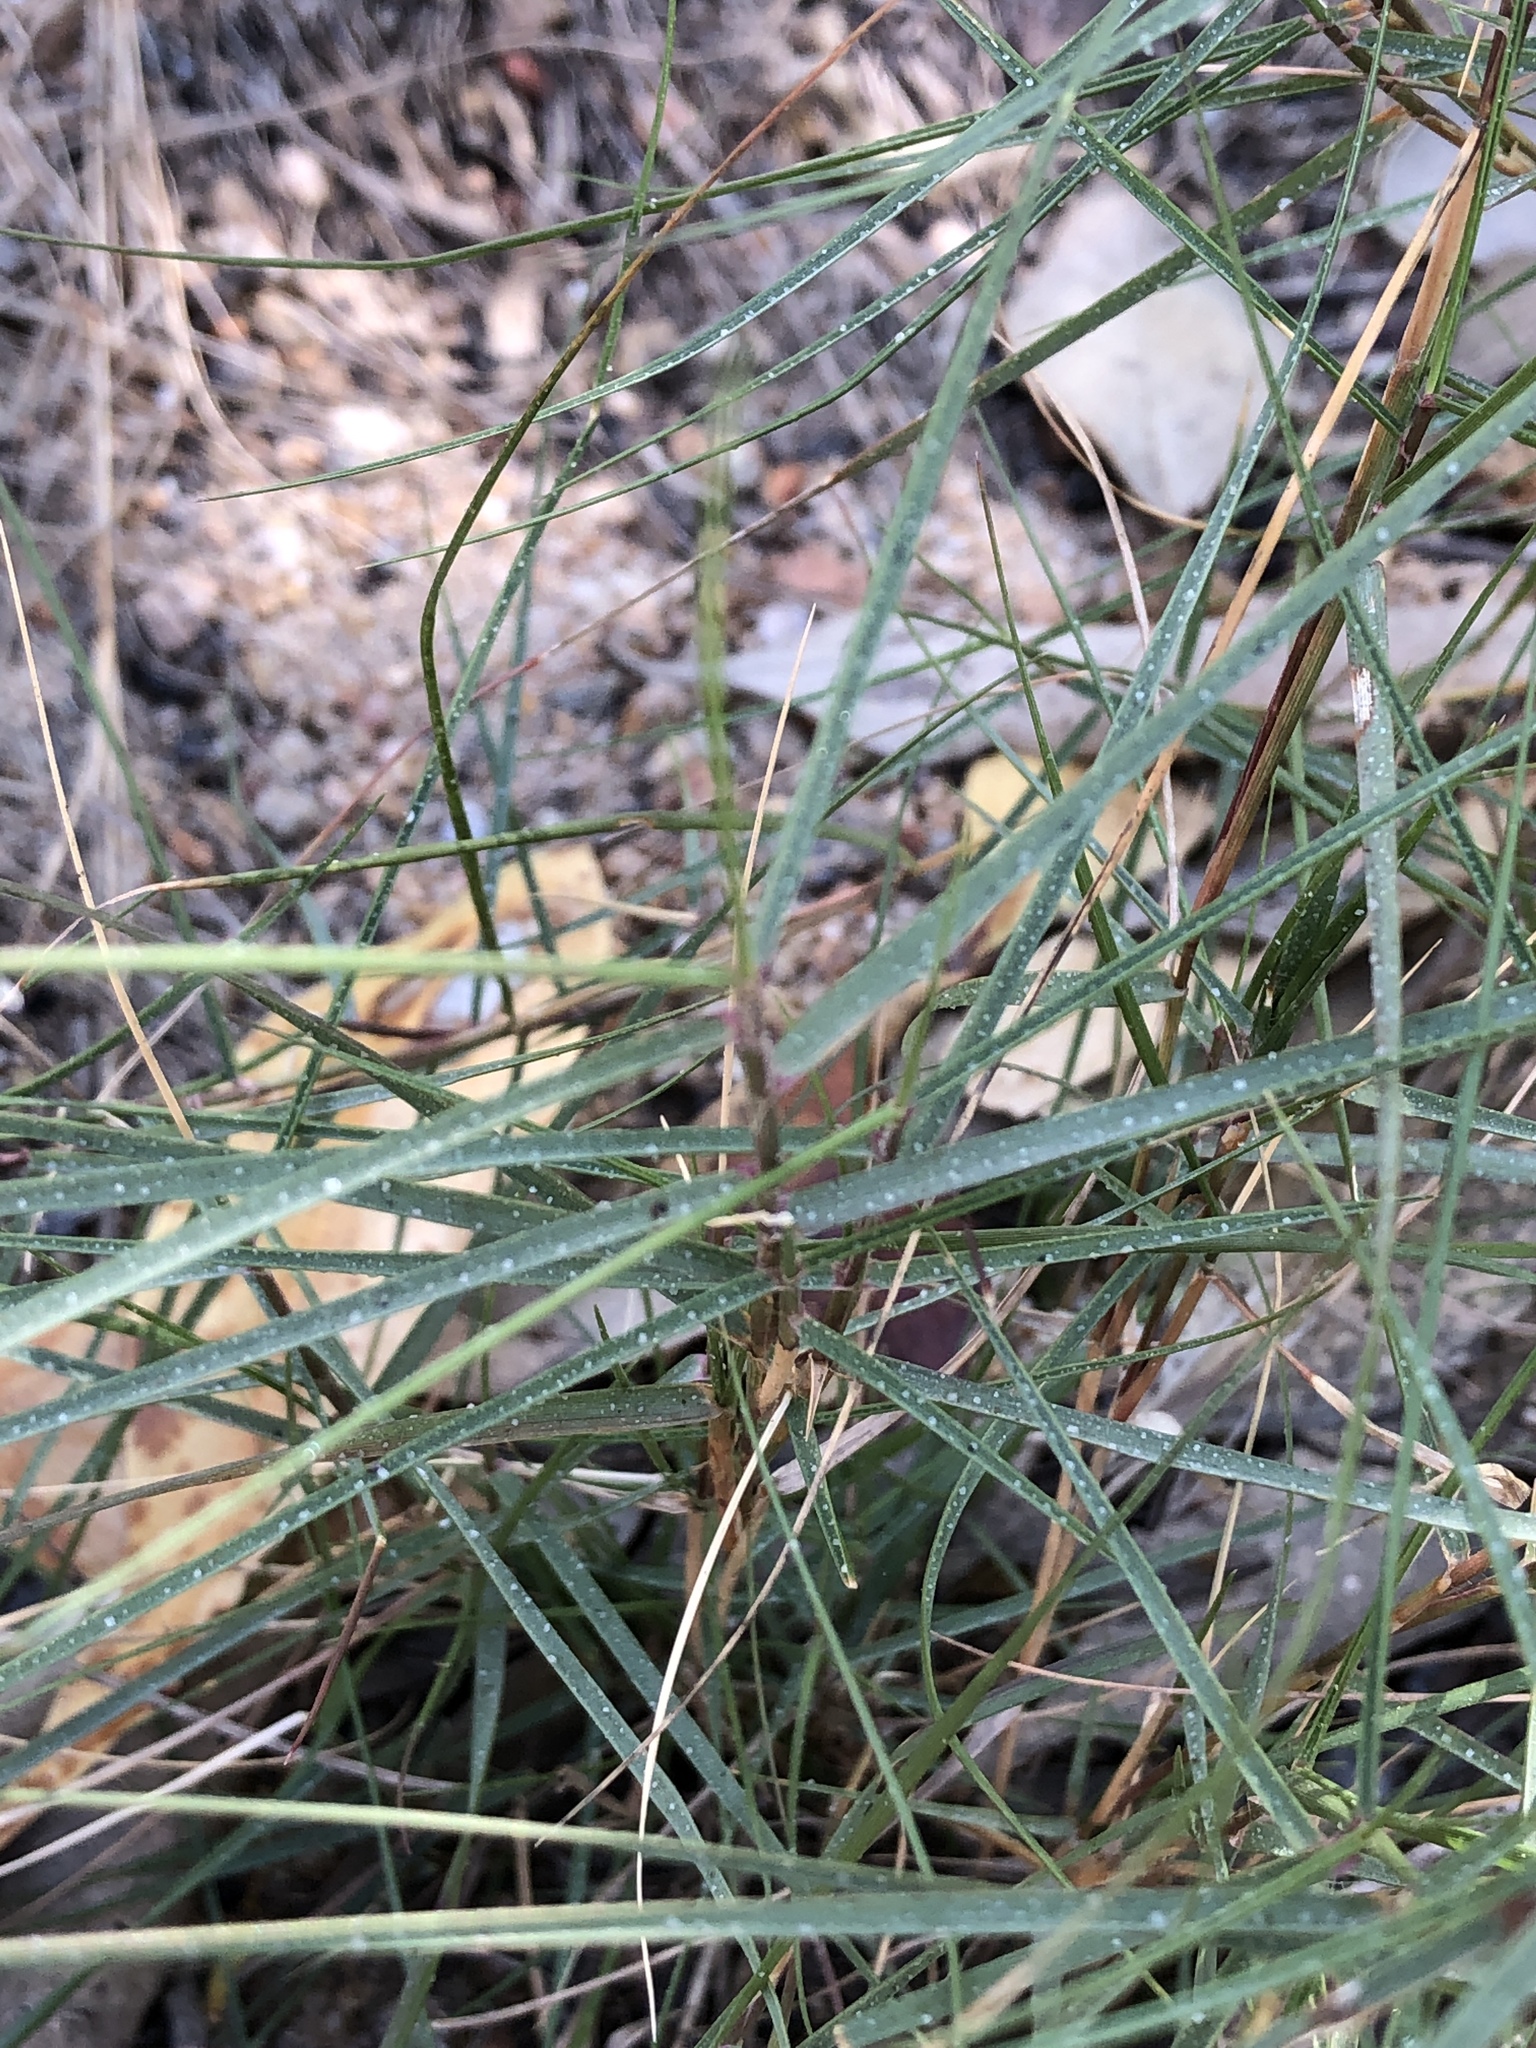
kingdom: Plantae
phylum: Tracheophyta
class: Liliopsida
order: Poales
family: Poaceae
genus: Sporobolus
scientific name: Sporobolus virginicus
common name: Beach dropseed
